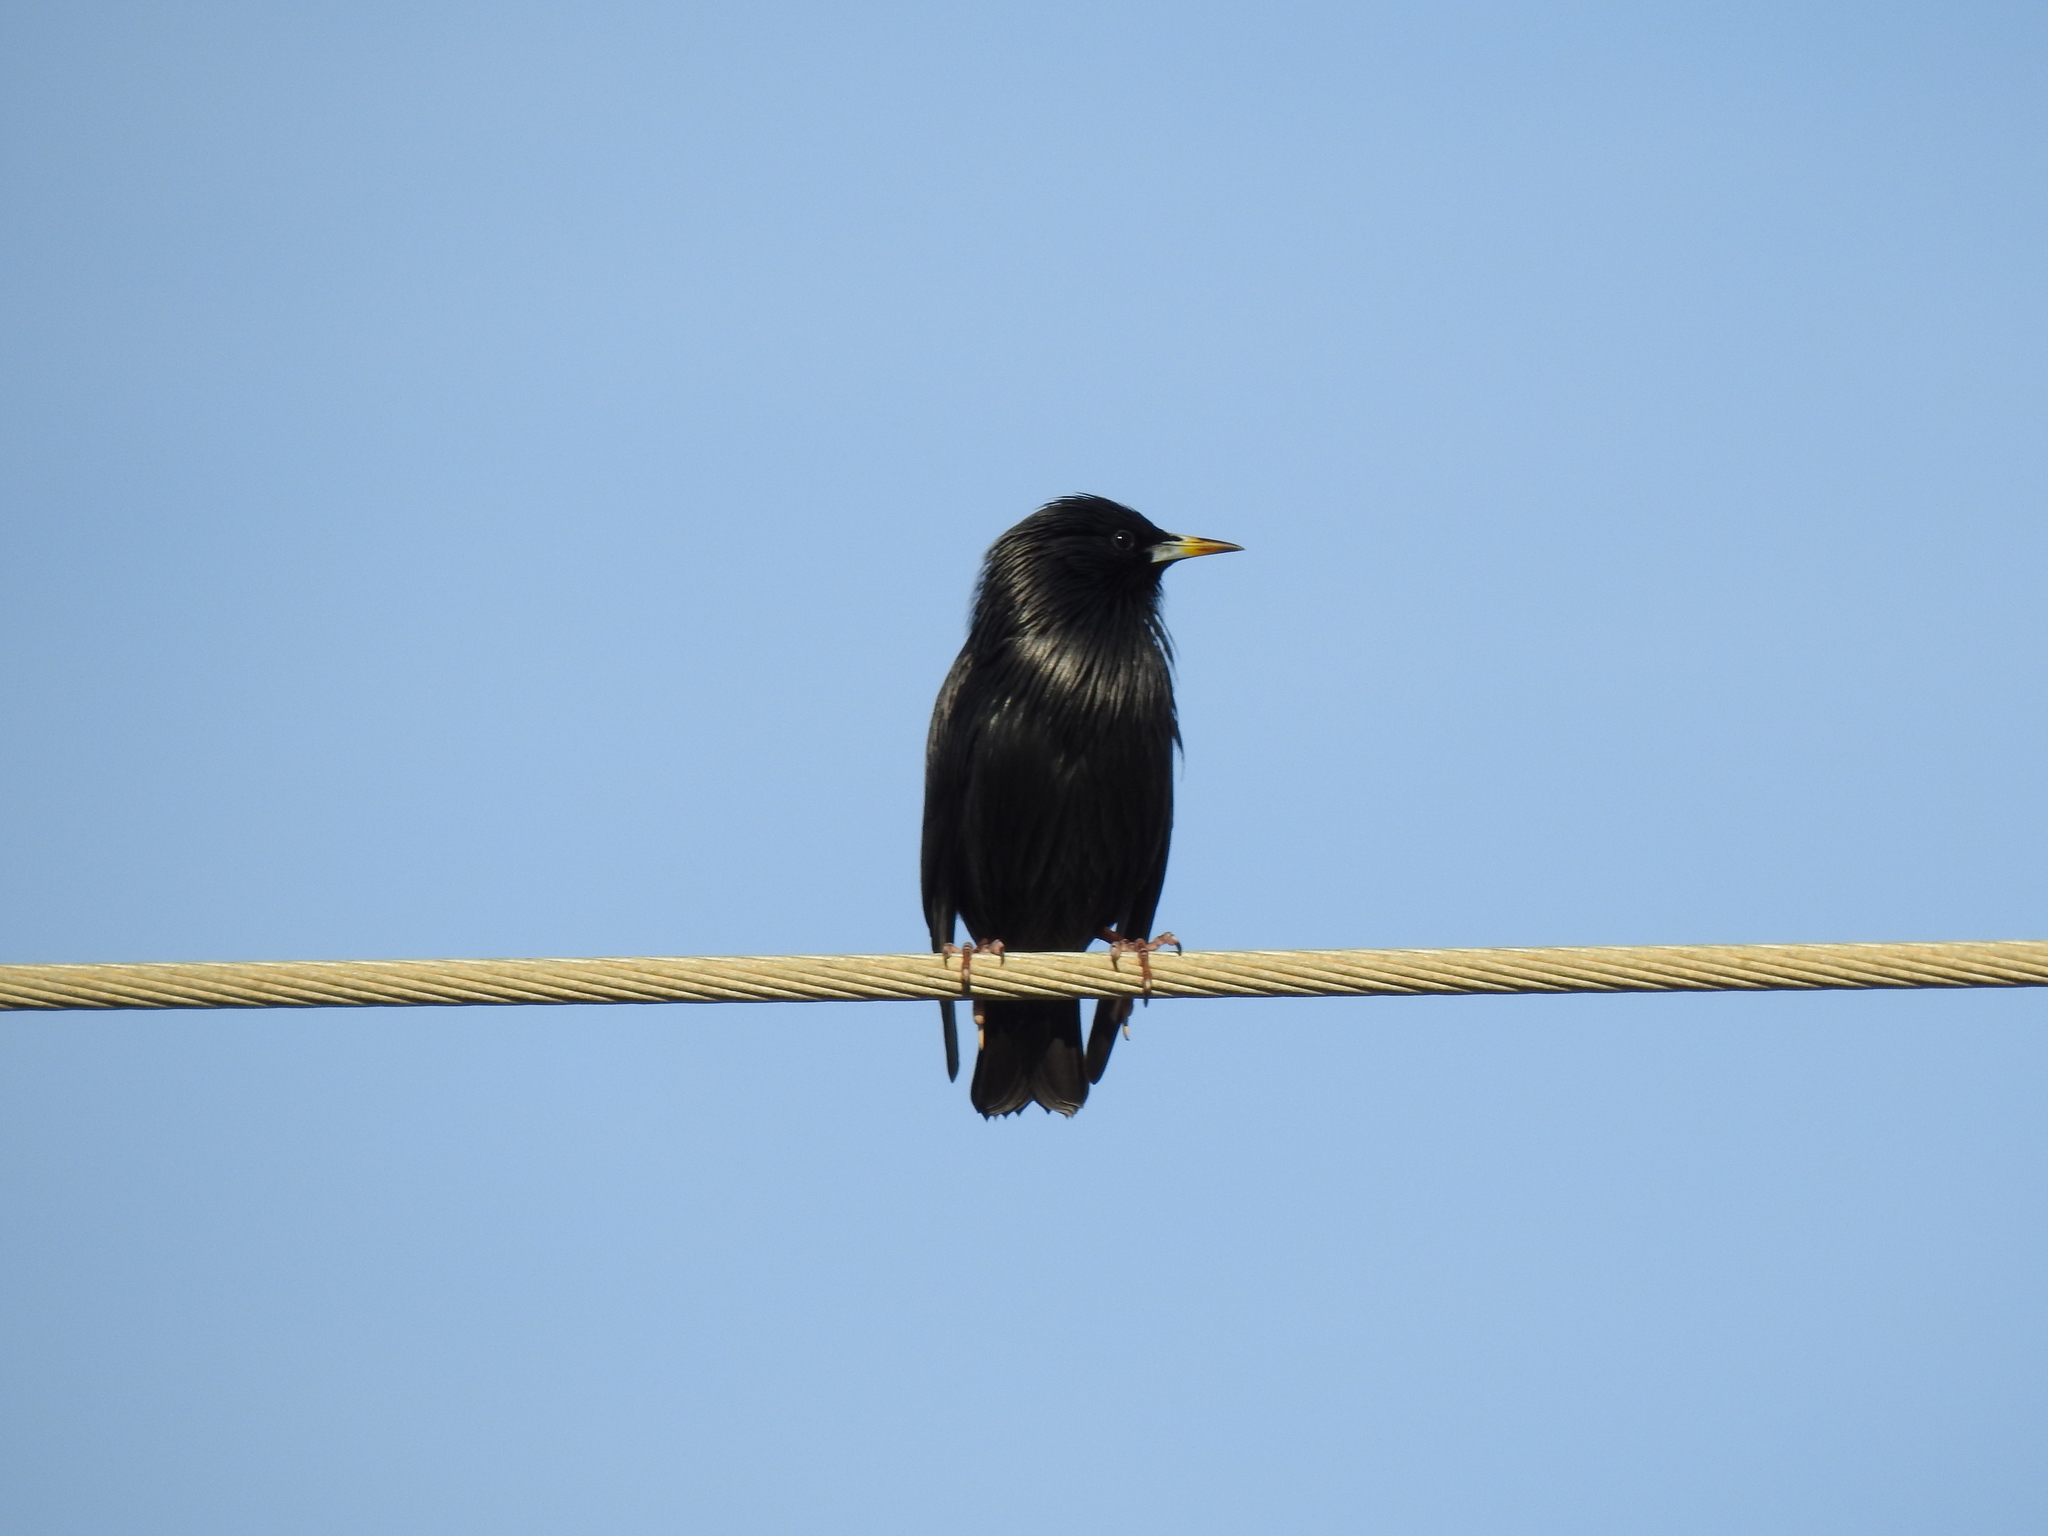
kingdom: Animalia
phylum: Chordata
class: Aves
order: Passeriformes
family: Sturnidae
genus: Sturnus
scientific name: Sturnus unicolor
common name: Spotless starling
